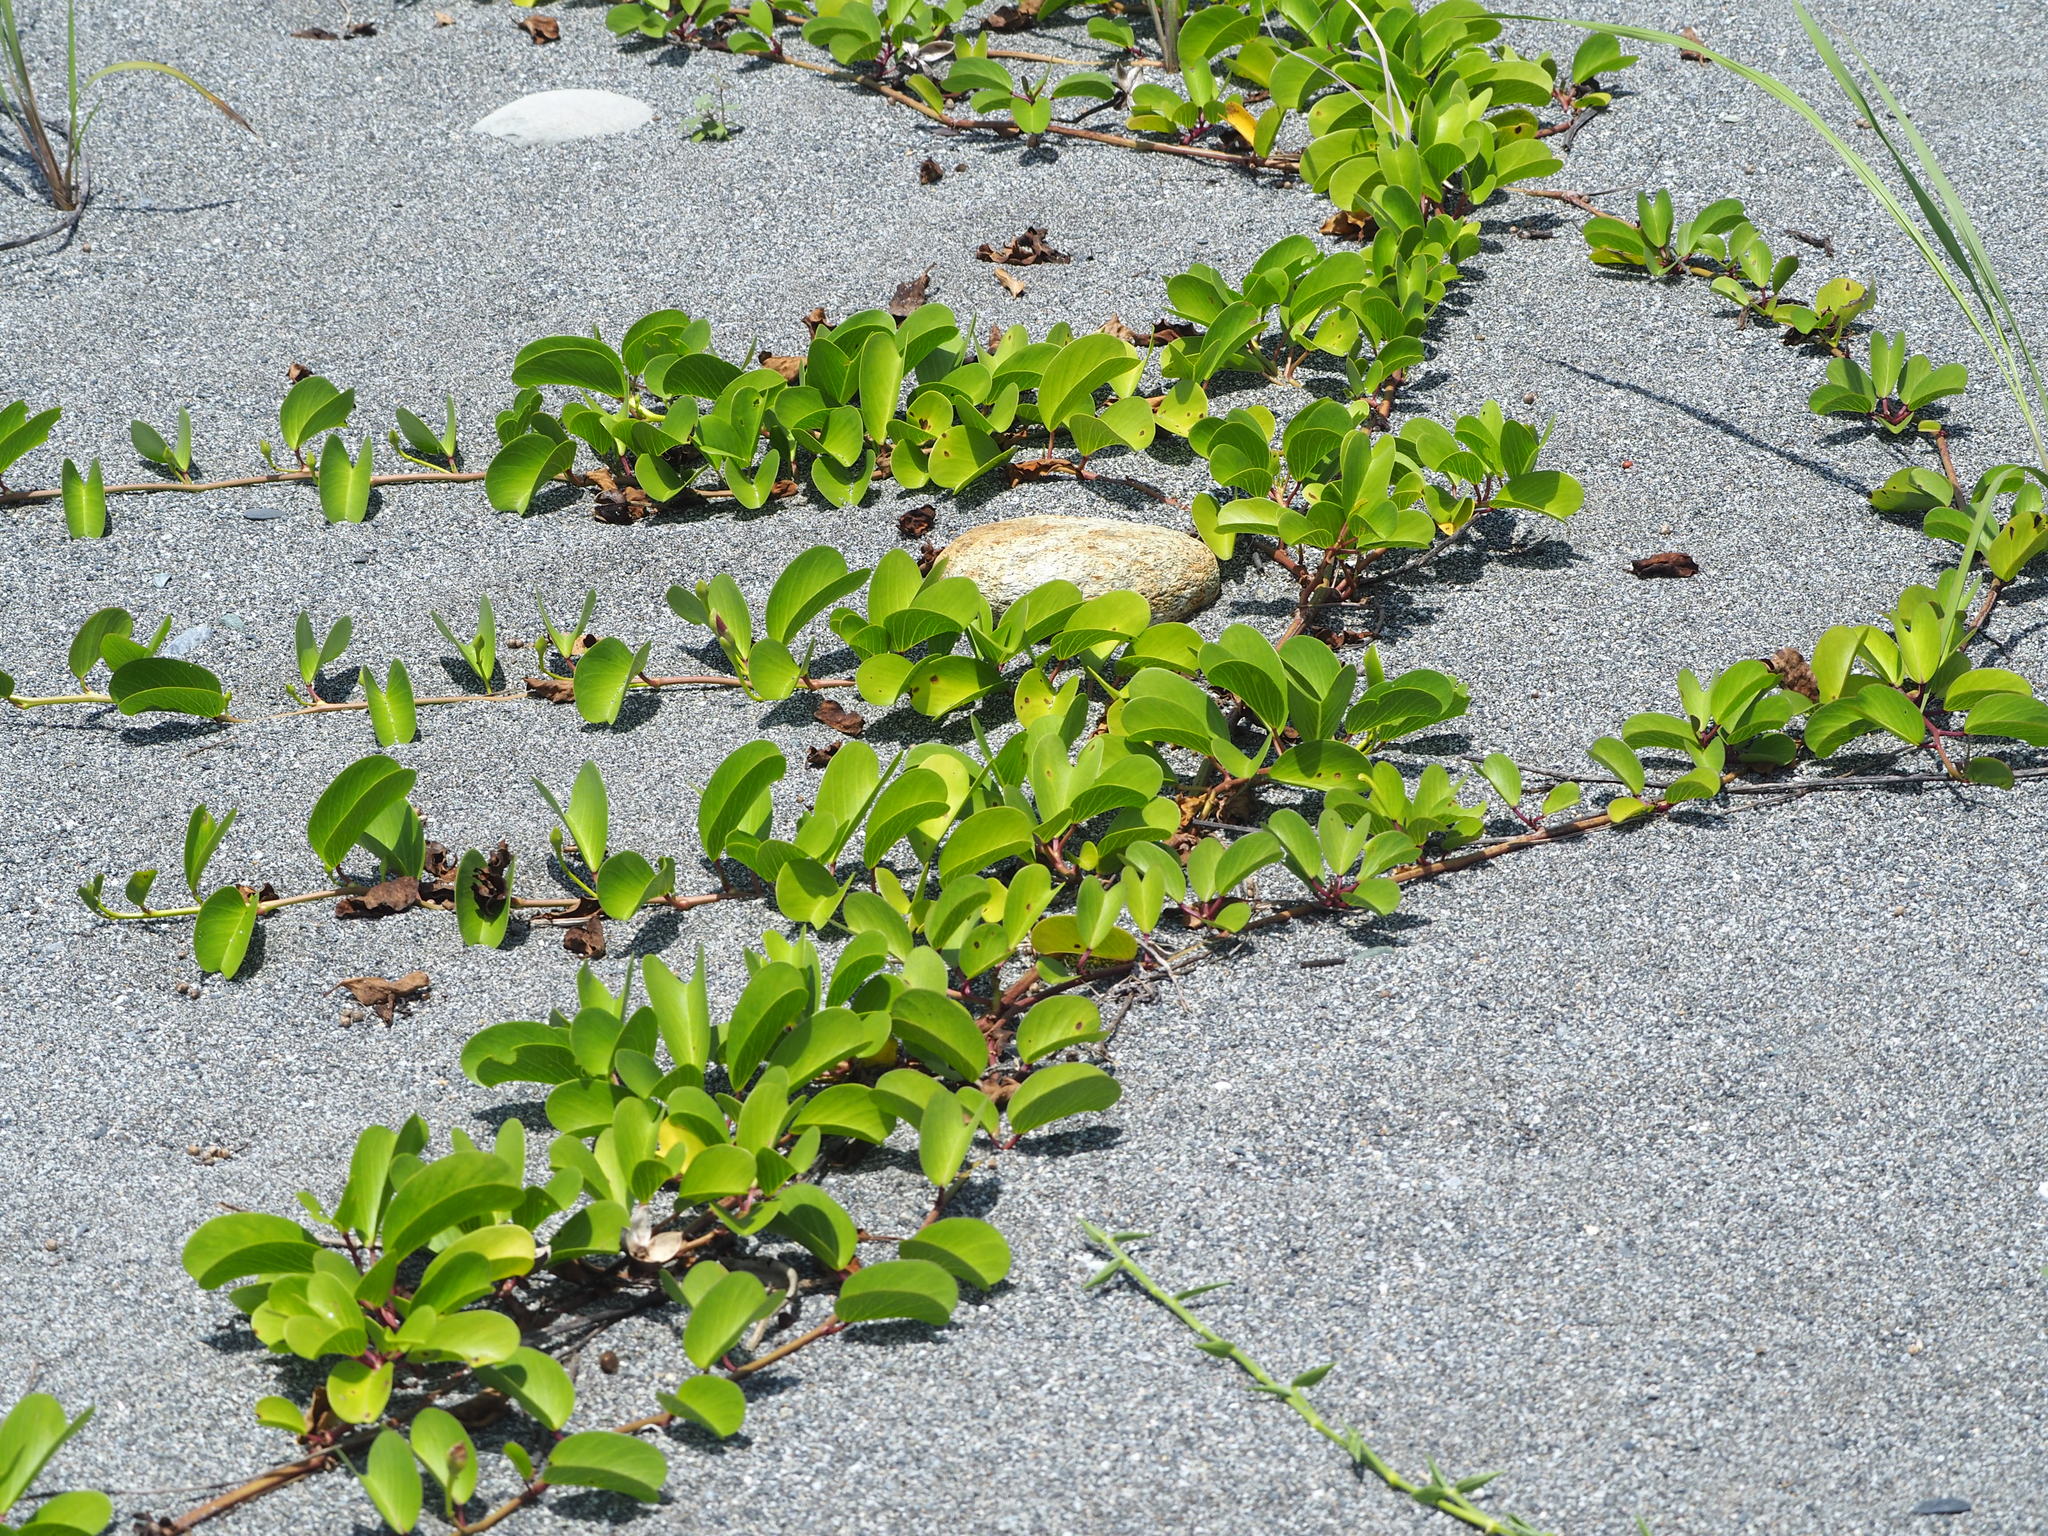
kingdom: Plantae
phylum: Tracheophyta
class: Magnoliopsida
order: Solanales
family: Convolvulaceae
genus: Ipomoea
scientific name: Ipomoea pes-caprae
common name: Beach morning glory
